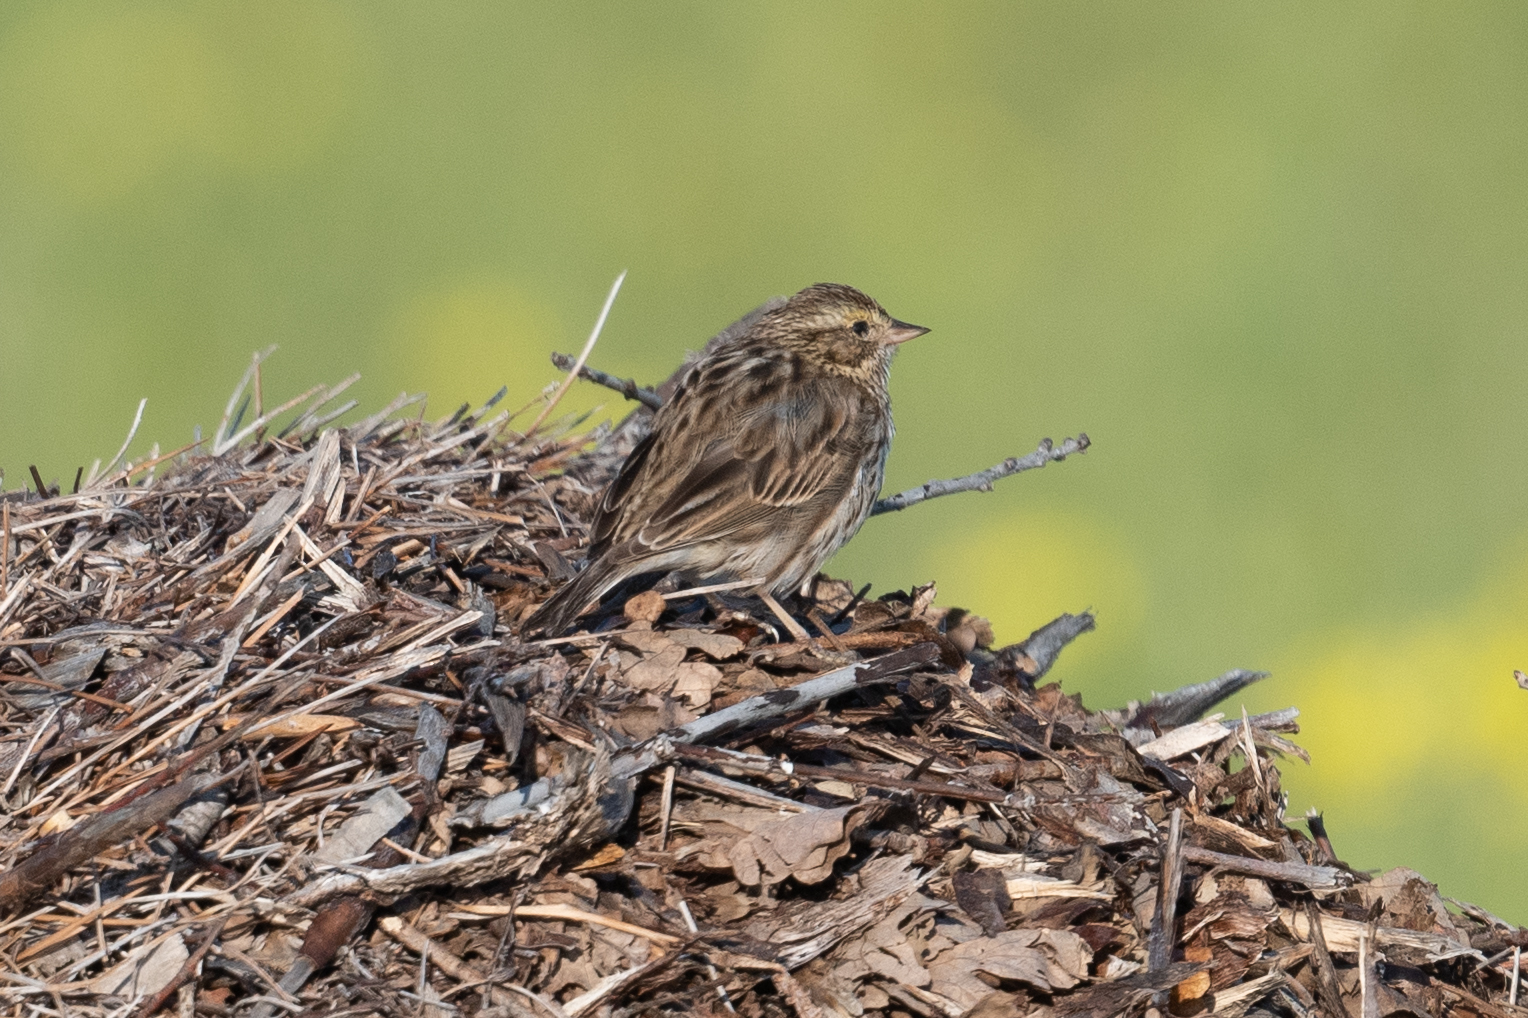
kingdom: Animalia
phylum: Chordata
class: Aves
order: Passeriformes
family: Passerellidae
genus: Passerculus
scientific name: Passerculus sandwichensis
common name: Savannah sparrow
